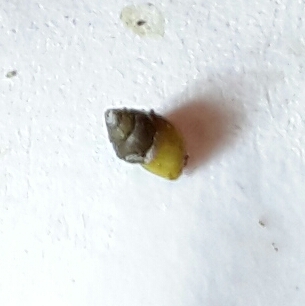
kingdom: Animalia
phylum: Mollusca
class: Gastropoda
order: Littorinimorpha
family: Assimineidae
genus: Angustassiminea
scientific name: Angustassiminea californica
